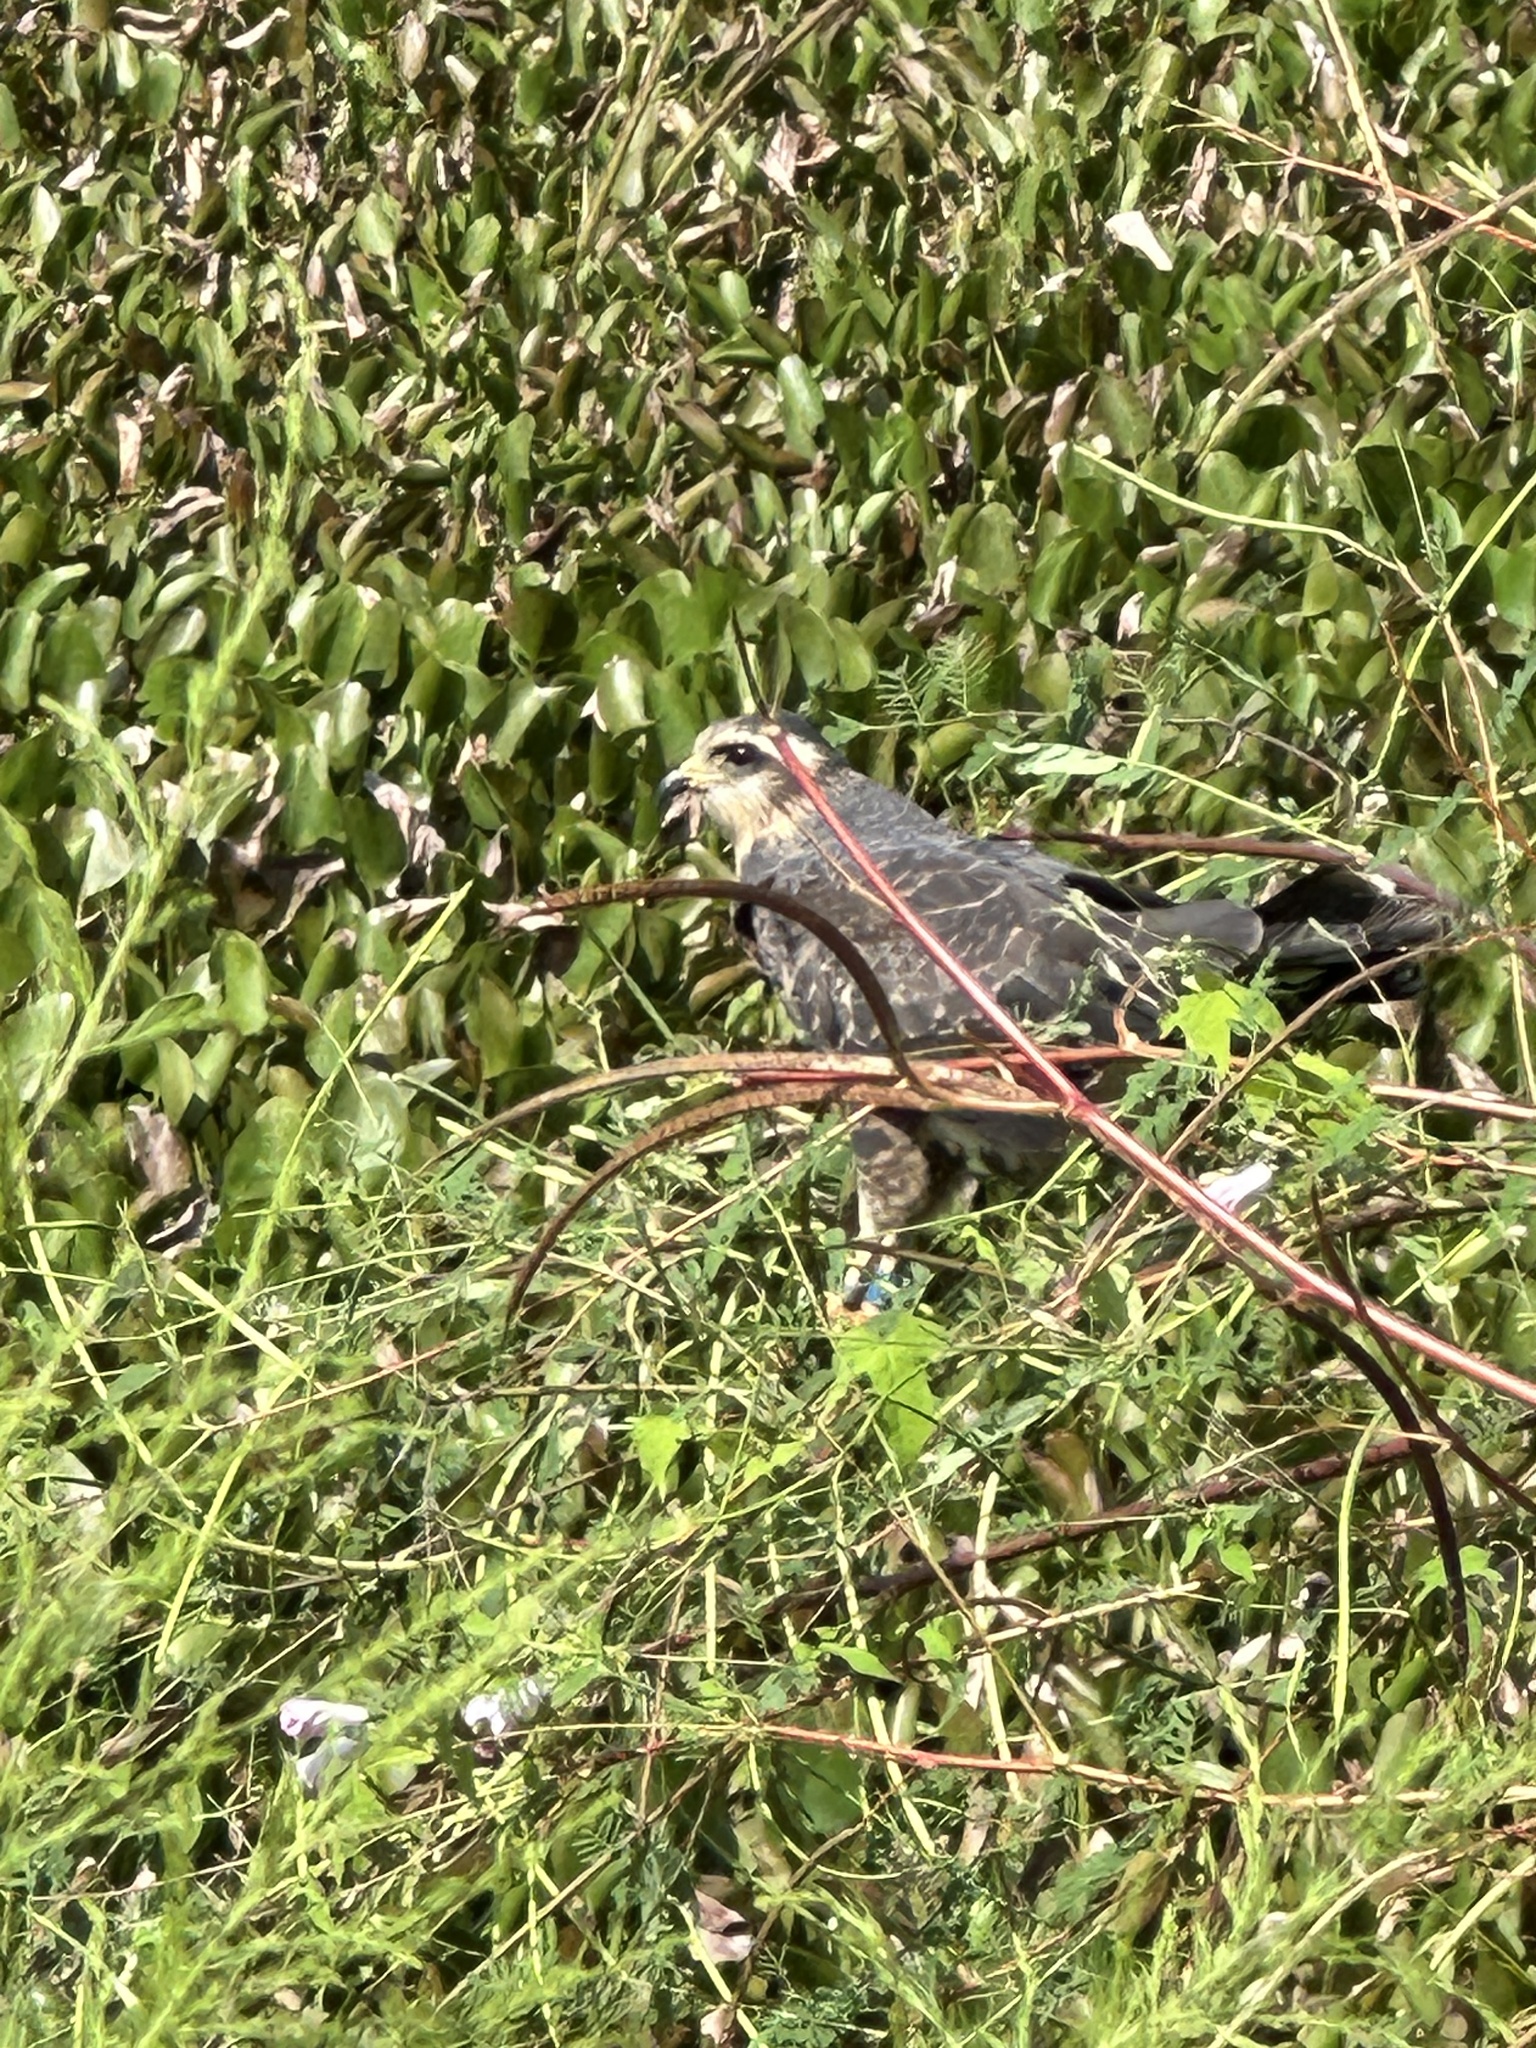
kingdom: Animalia
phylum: Chordata
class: Aves
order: Accipitriformes
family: Accipitridae
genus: Rostrhamus
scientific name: Rostrhamus sociabilis
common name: Snail kite
